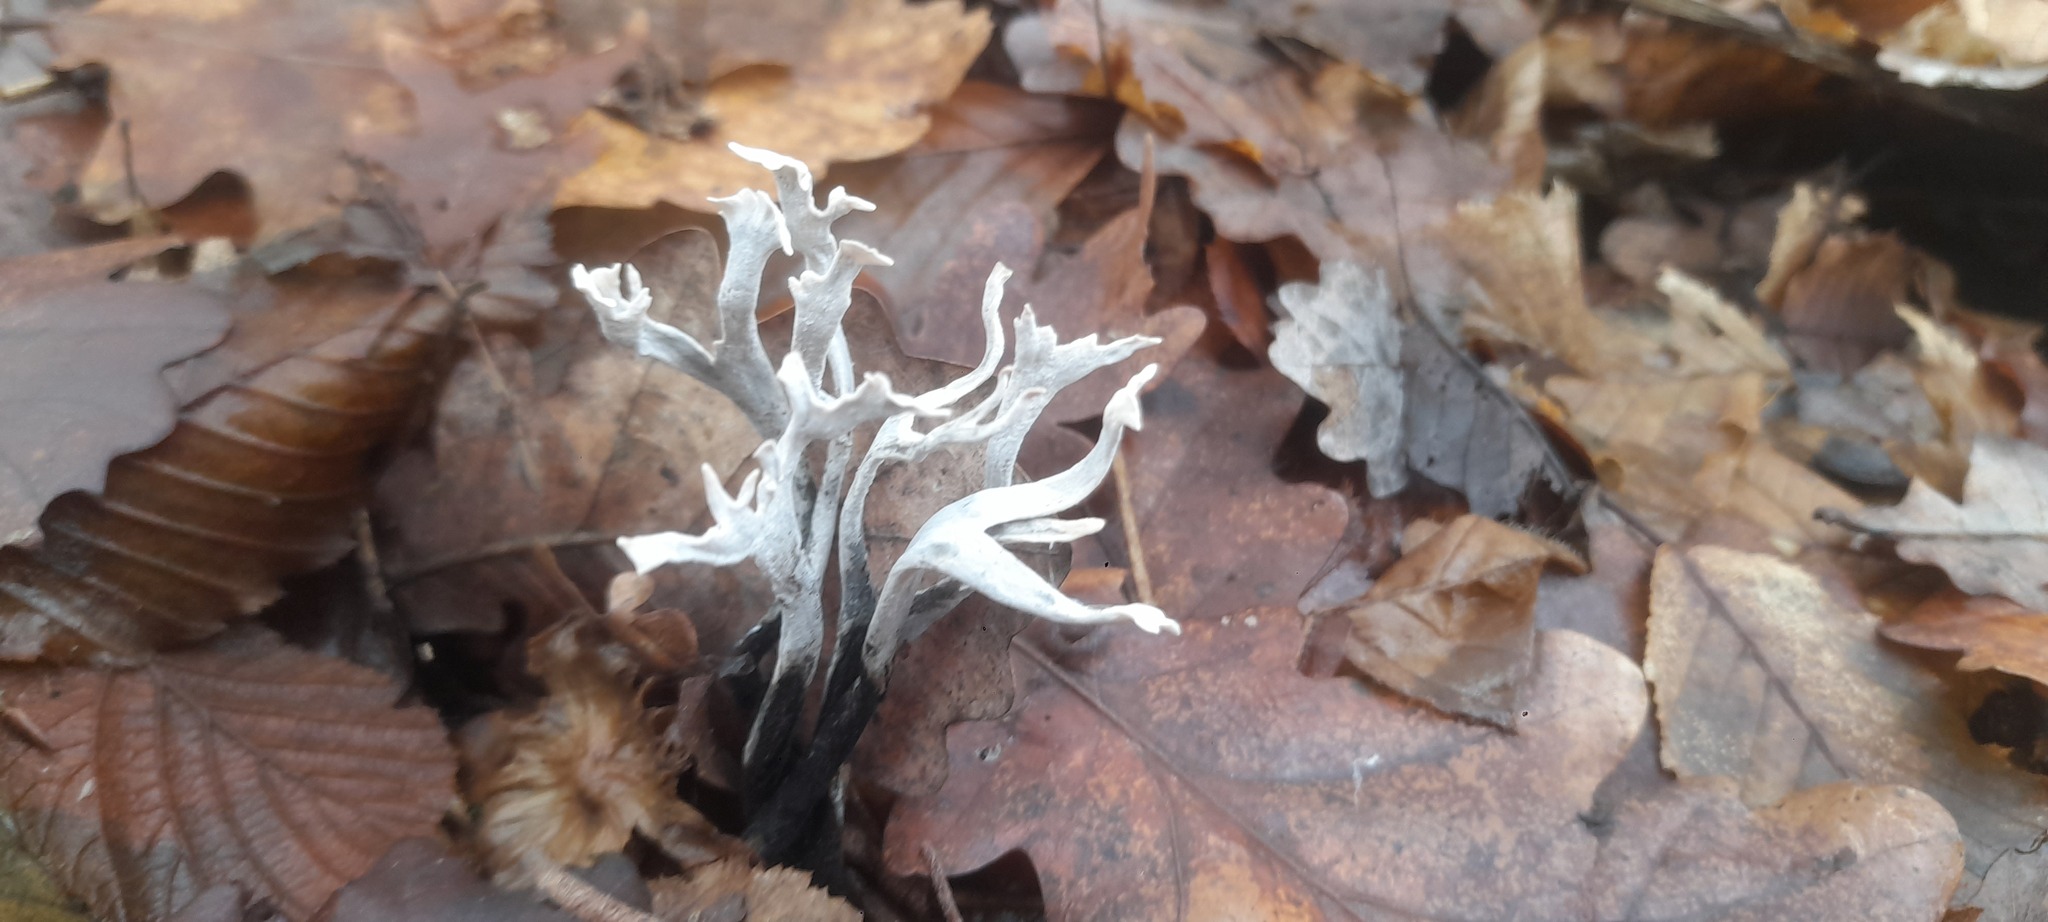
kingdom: Fungi
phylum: Ascomycota
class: Sordariomycetes
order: Xylariales
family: Xylariaceae
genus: Xylaria
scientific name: Xylaria hypoxylon
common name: Candle-snuff fungus
